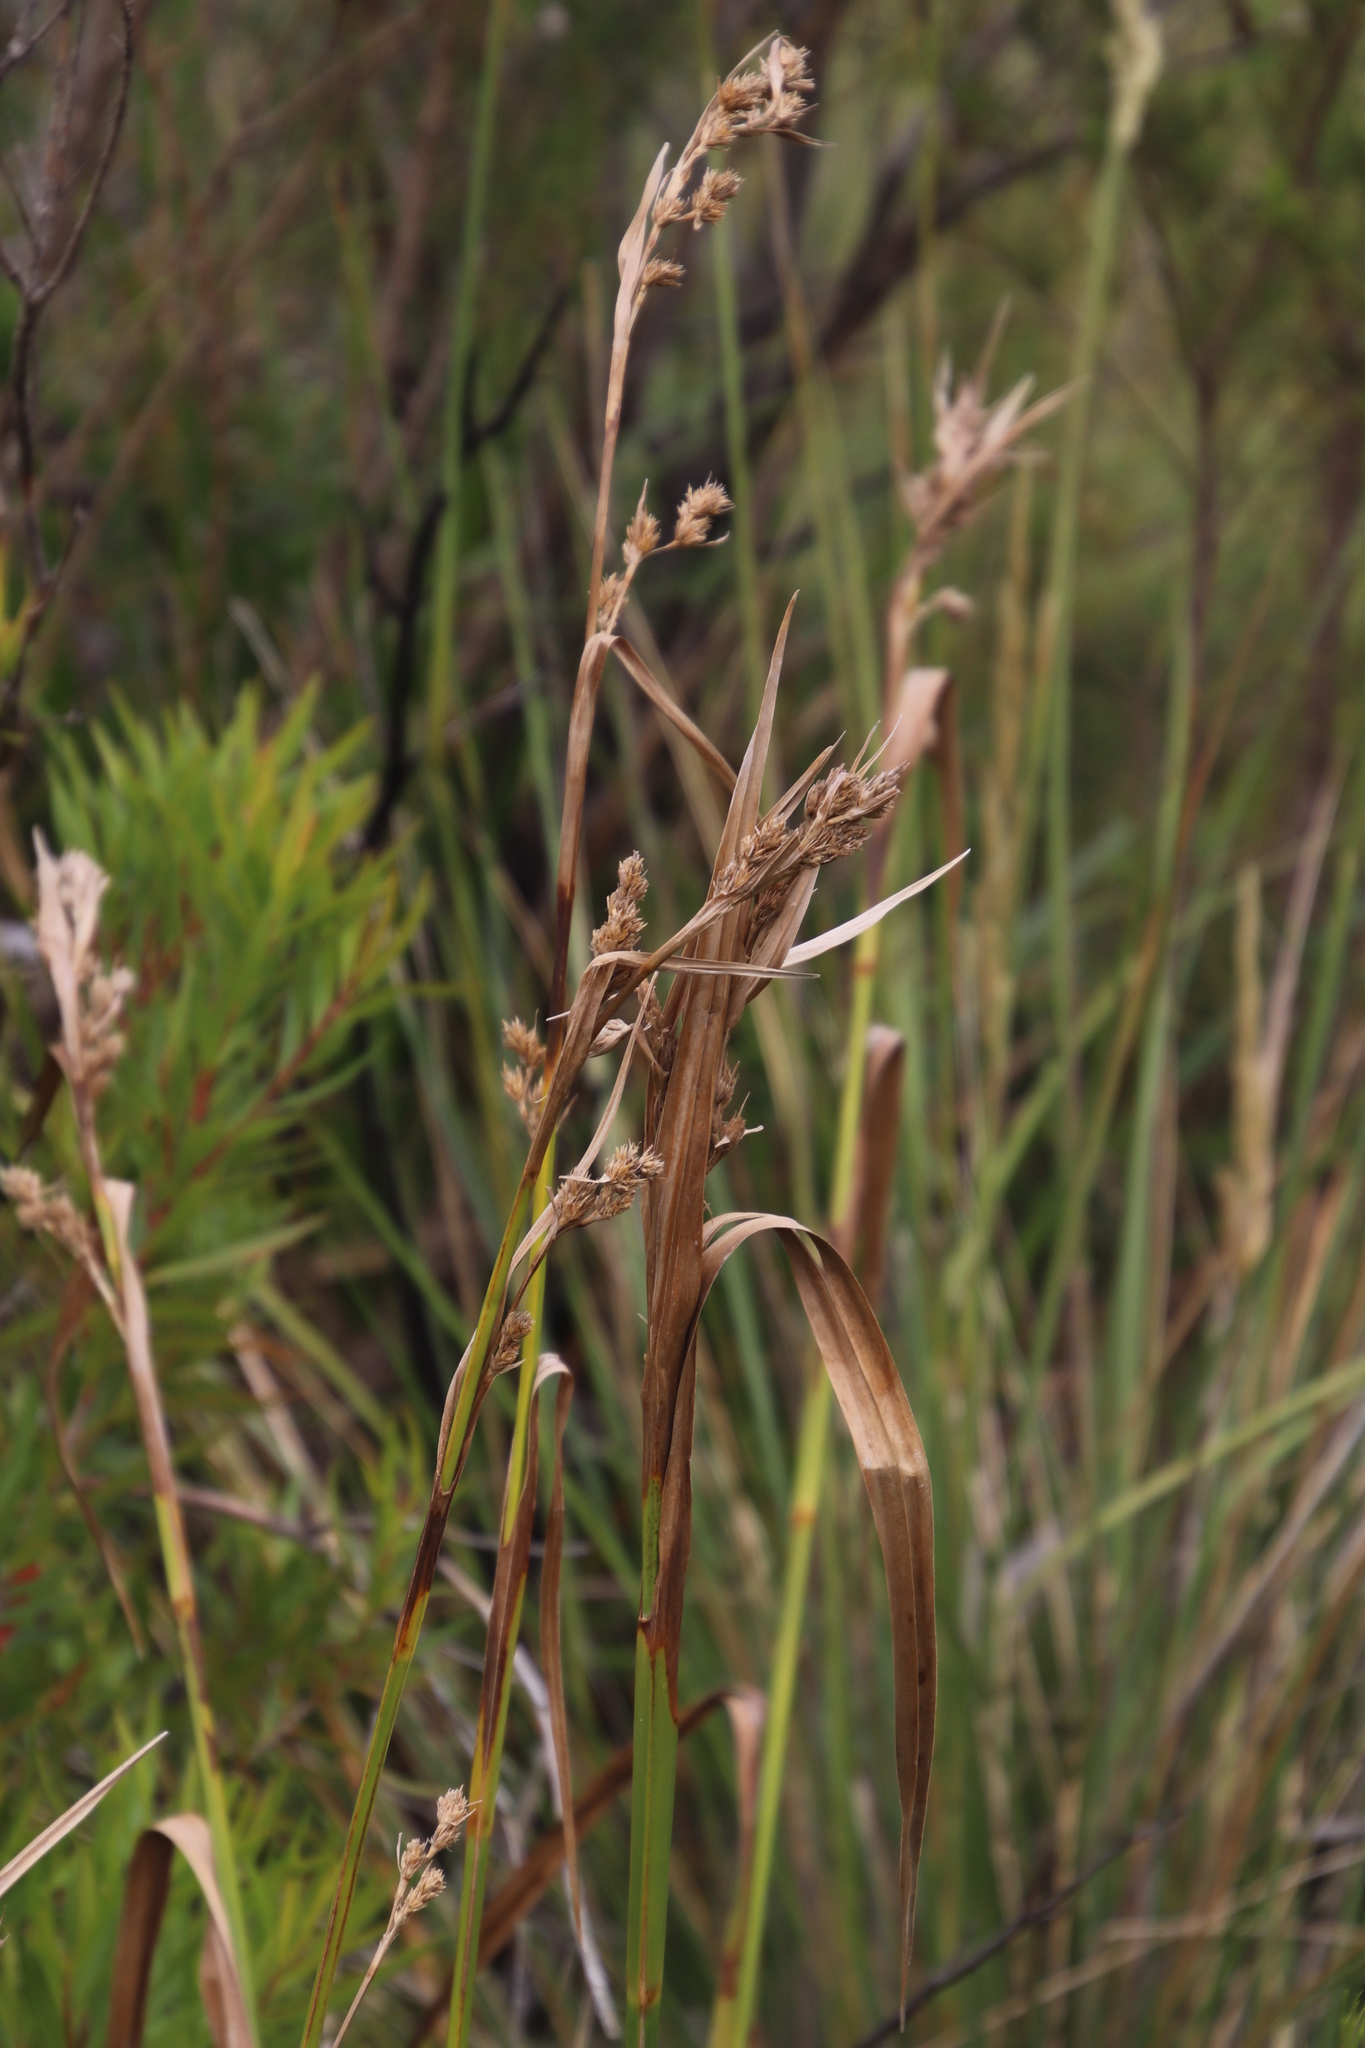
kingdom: Plantae
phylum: Tracheophyta
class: Liliopsida
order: Poales
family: Cyperaceae
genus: Carpha
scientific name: Carpha glomerata
